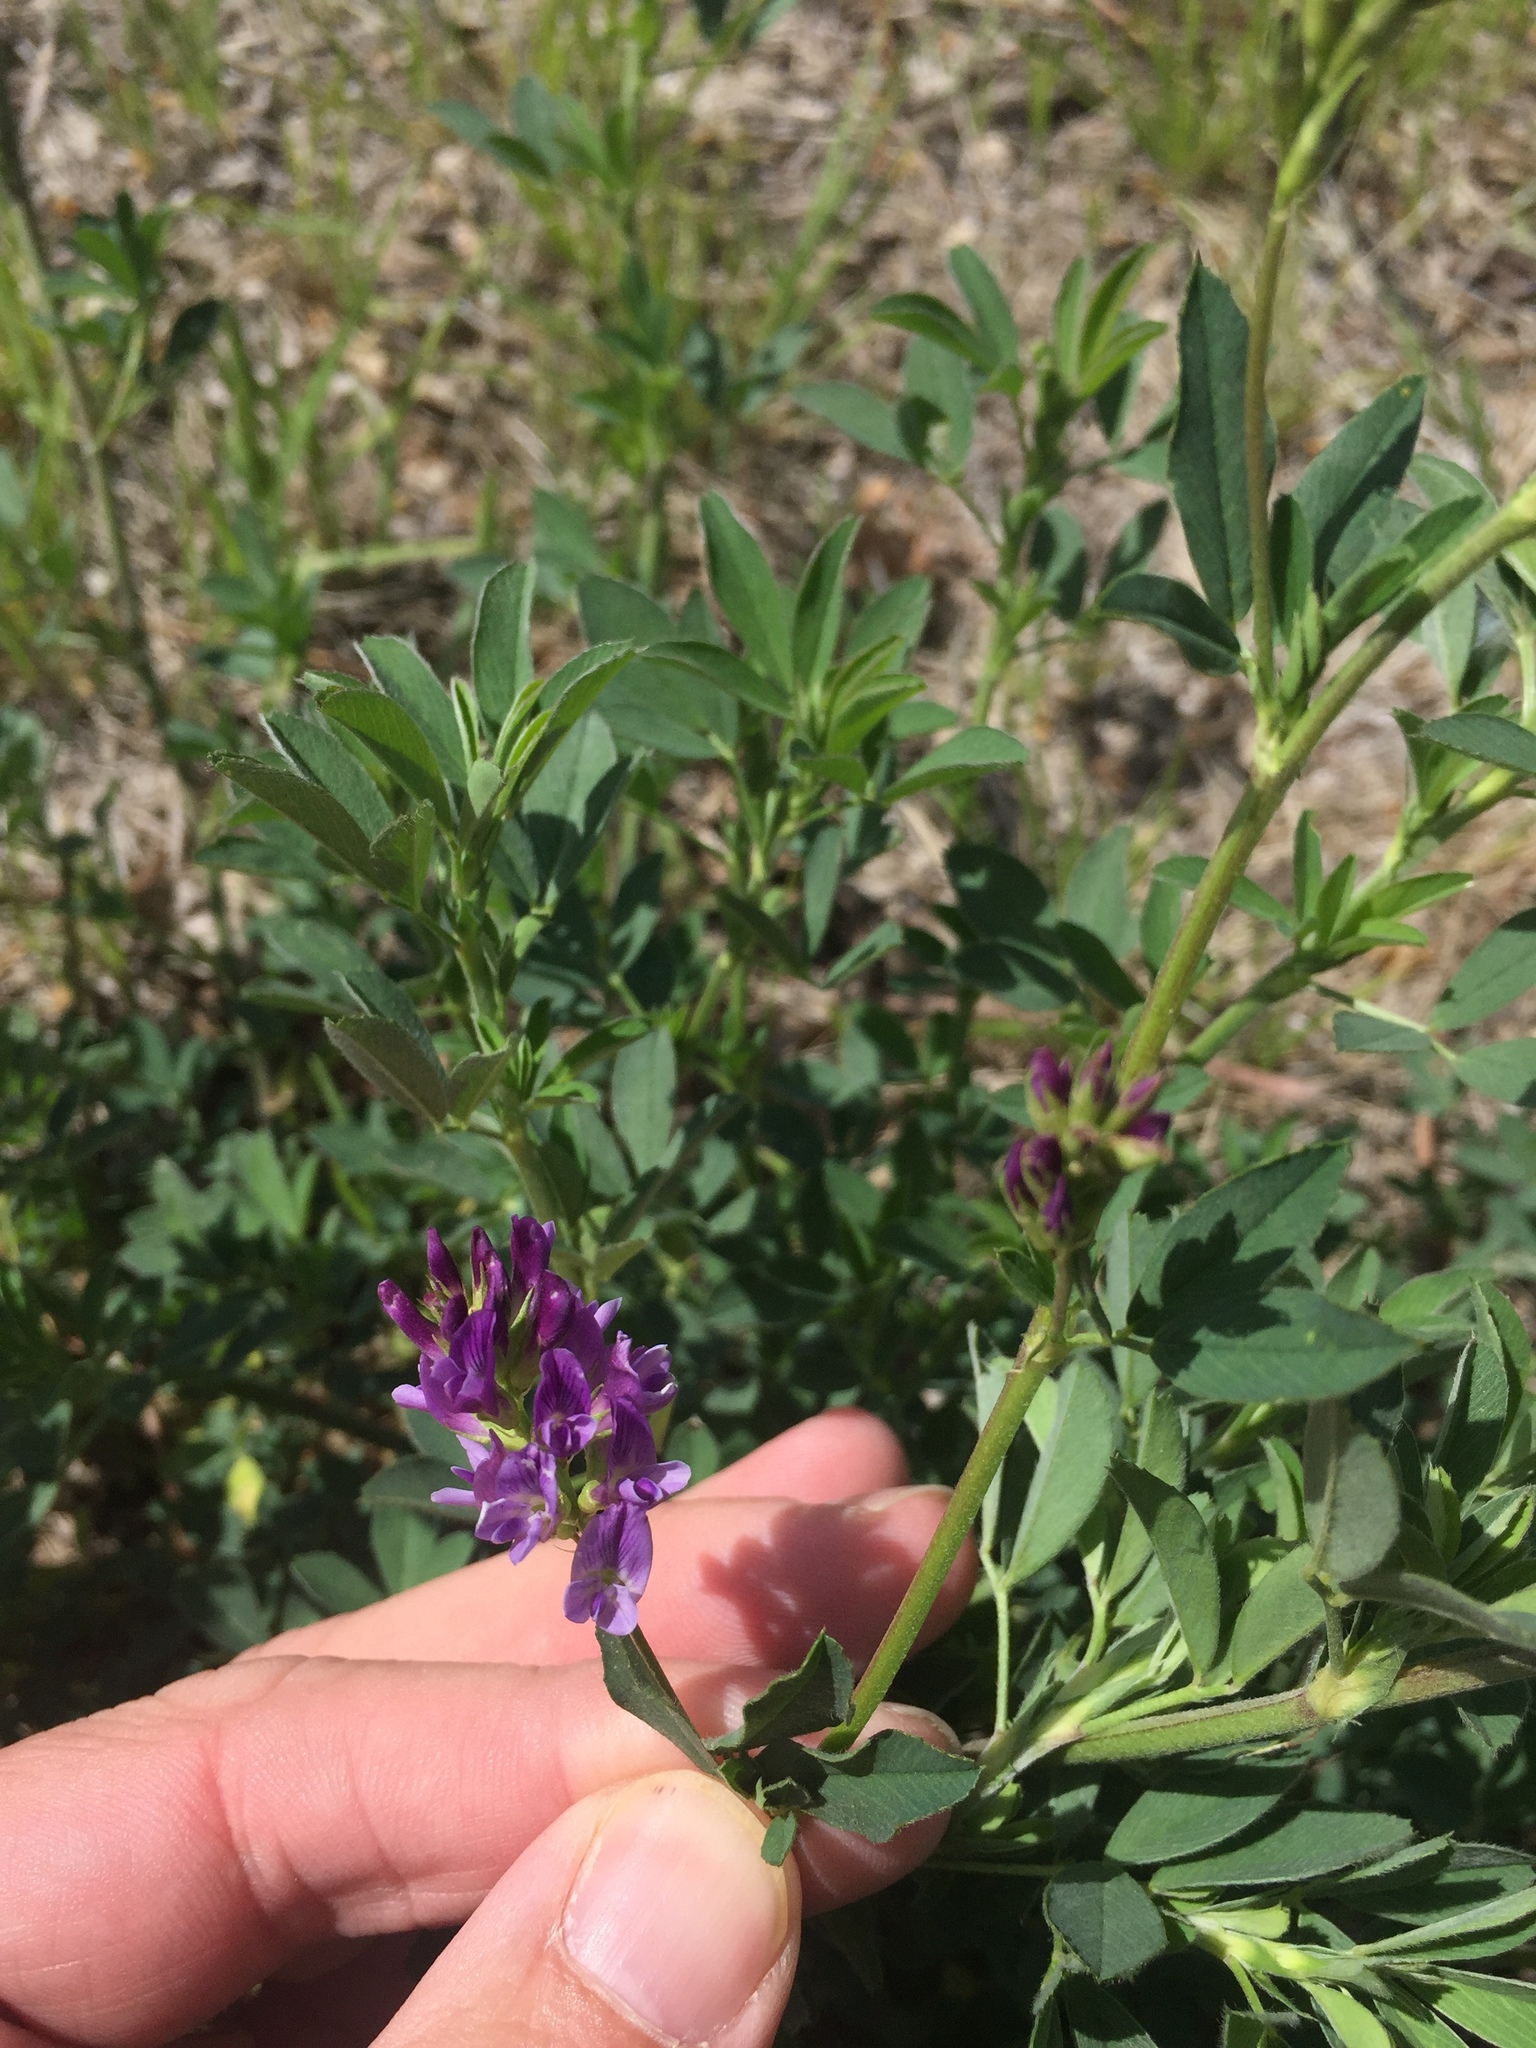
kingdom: Plantae
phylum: Tracheophyta
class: Magnoliopsida
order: Fabales
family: Fabaceae
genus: Medicago
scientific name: Medicago sativa
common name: Alfalfa
